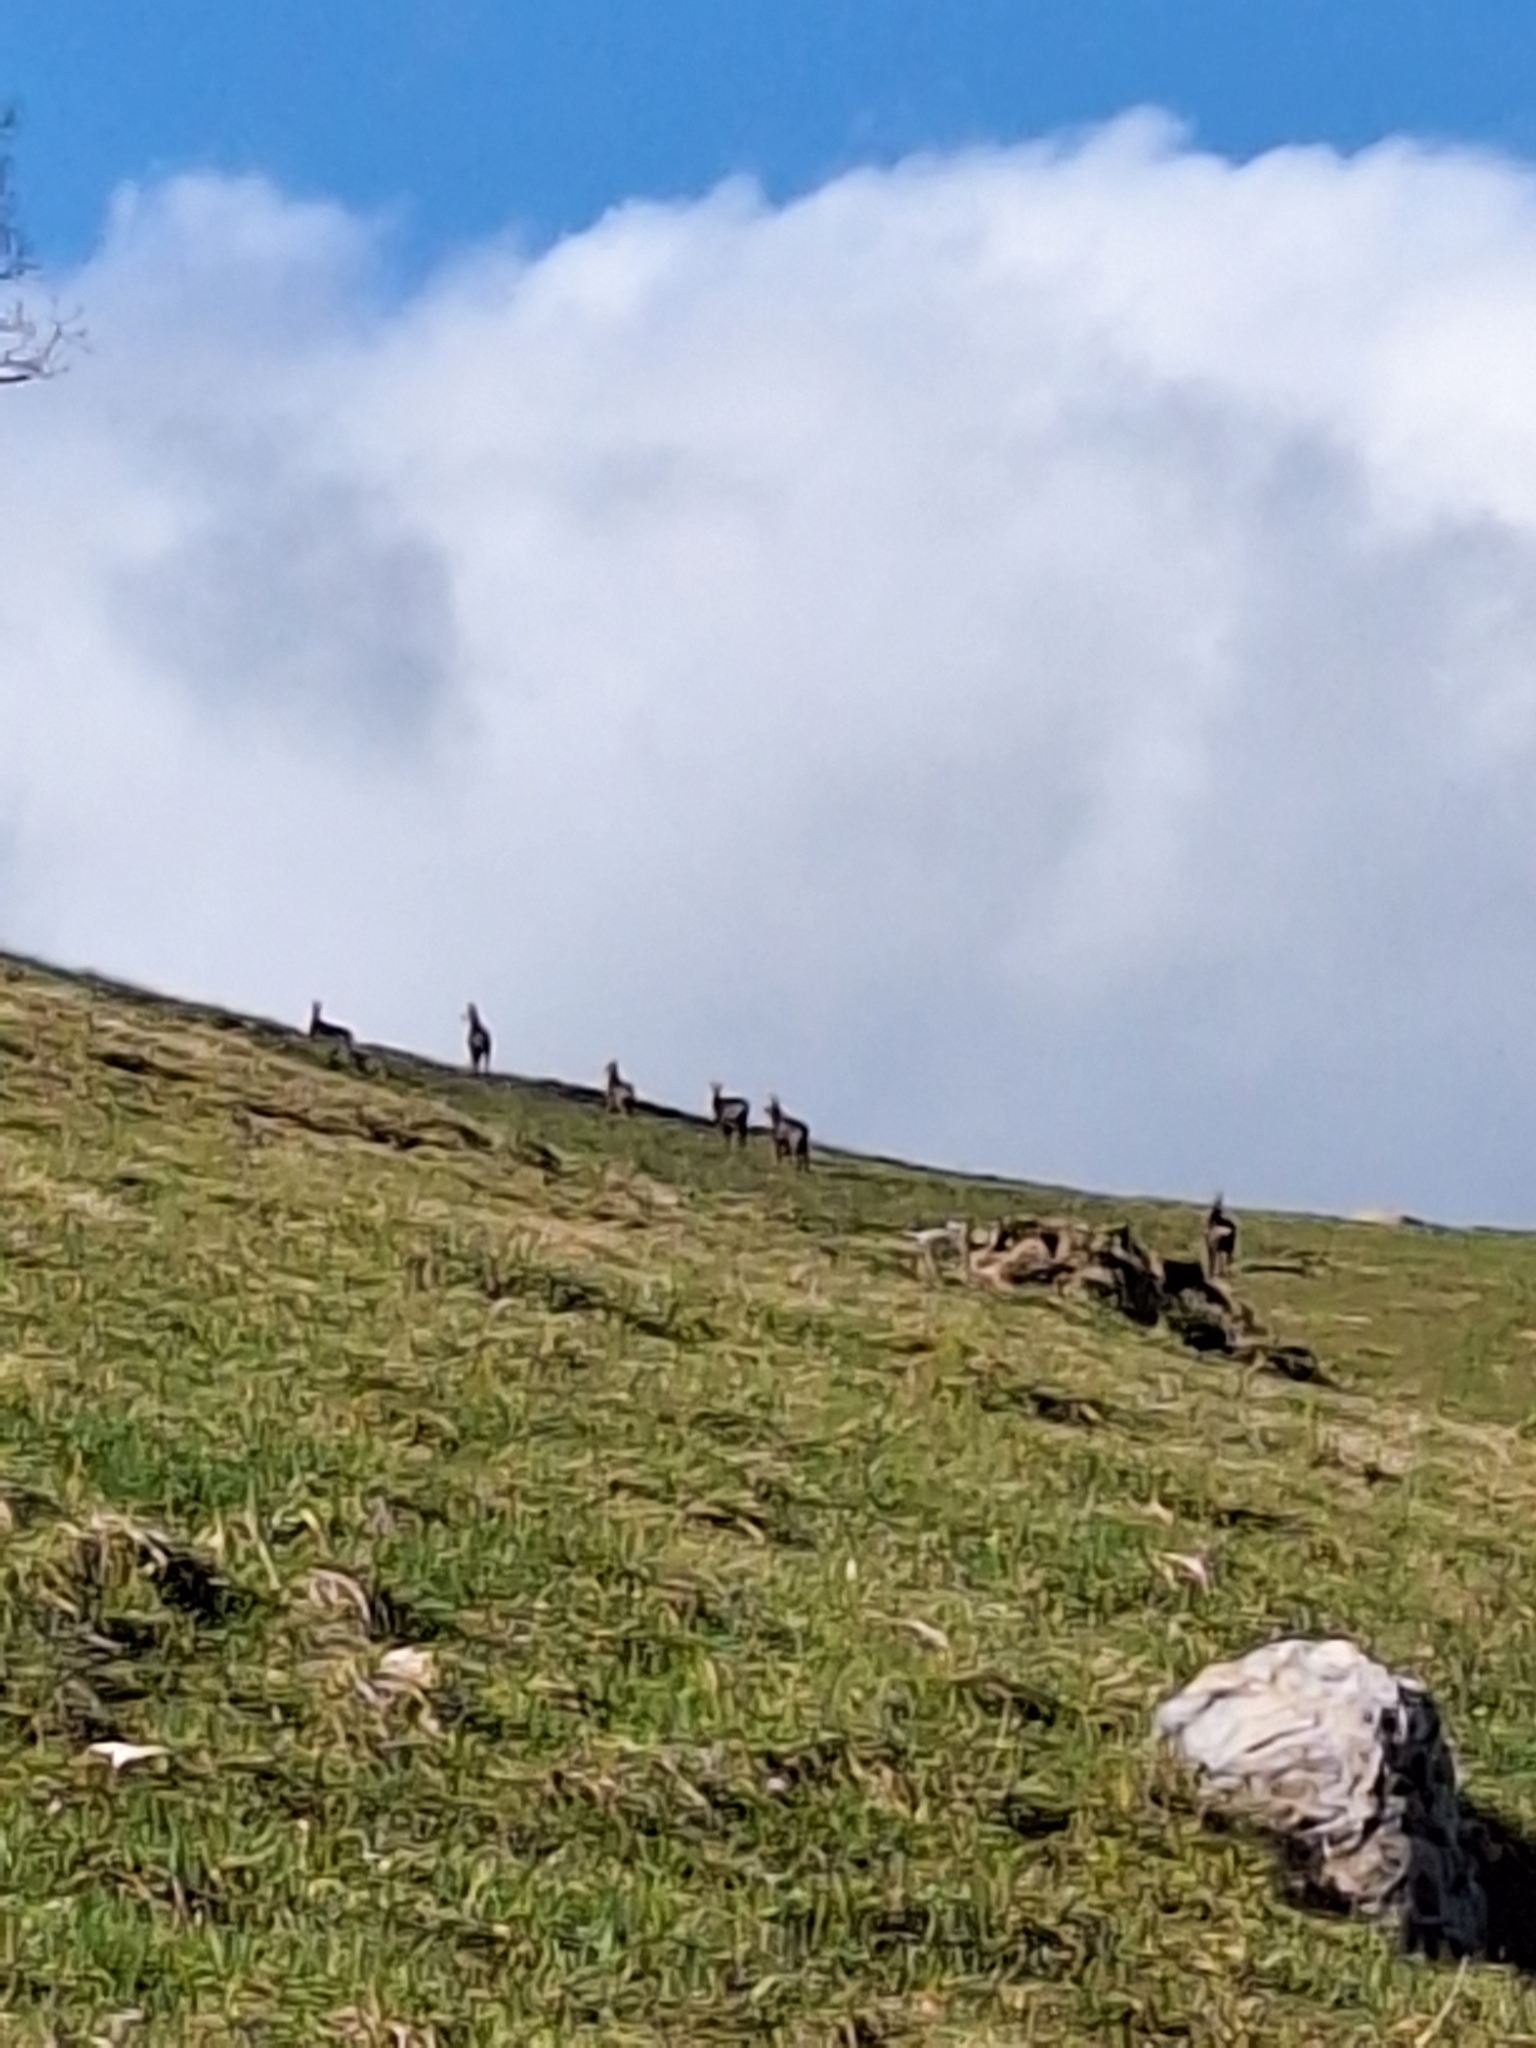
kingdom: Animalia
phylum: Chordata
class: Mammalia
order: Artiodactyla
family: Bovidae
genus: Rupicapra
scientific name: Rupicapra rupicapra
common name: Chamois
